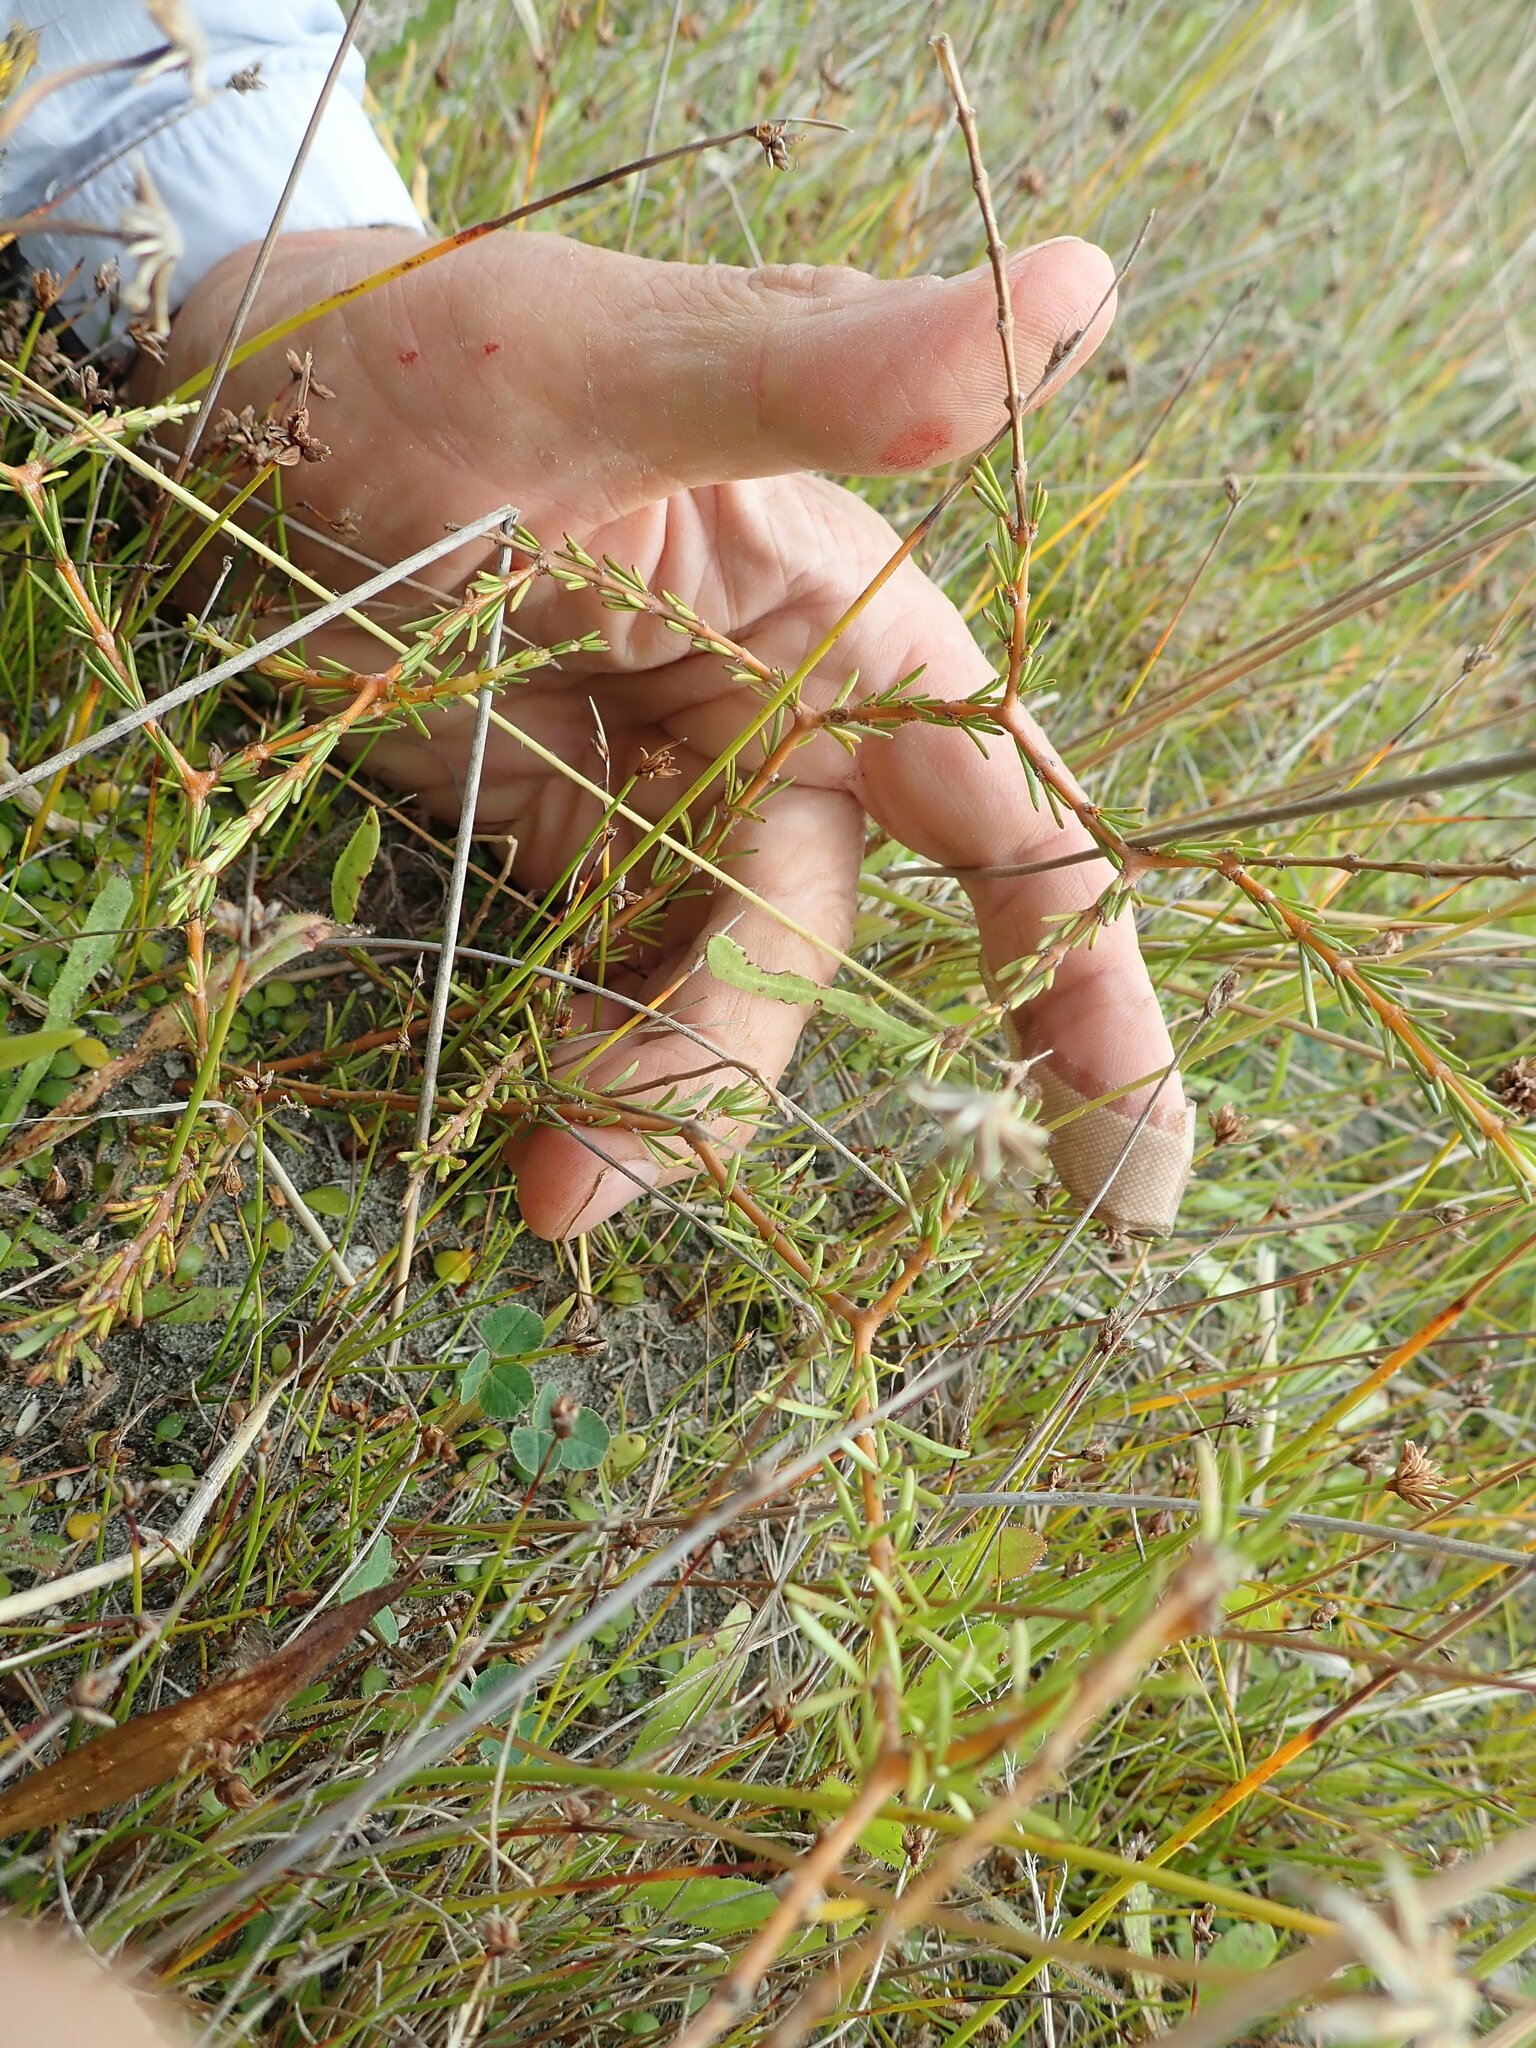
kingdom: Plantae
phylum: Tracheophyta
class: Magnoliopsida
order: Gentianales
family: Rubiaceae
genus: Coprosma
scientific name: Coprosma acerosa
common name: Sand coprosma
